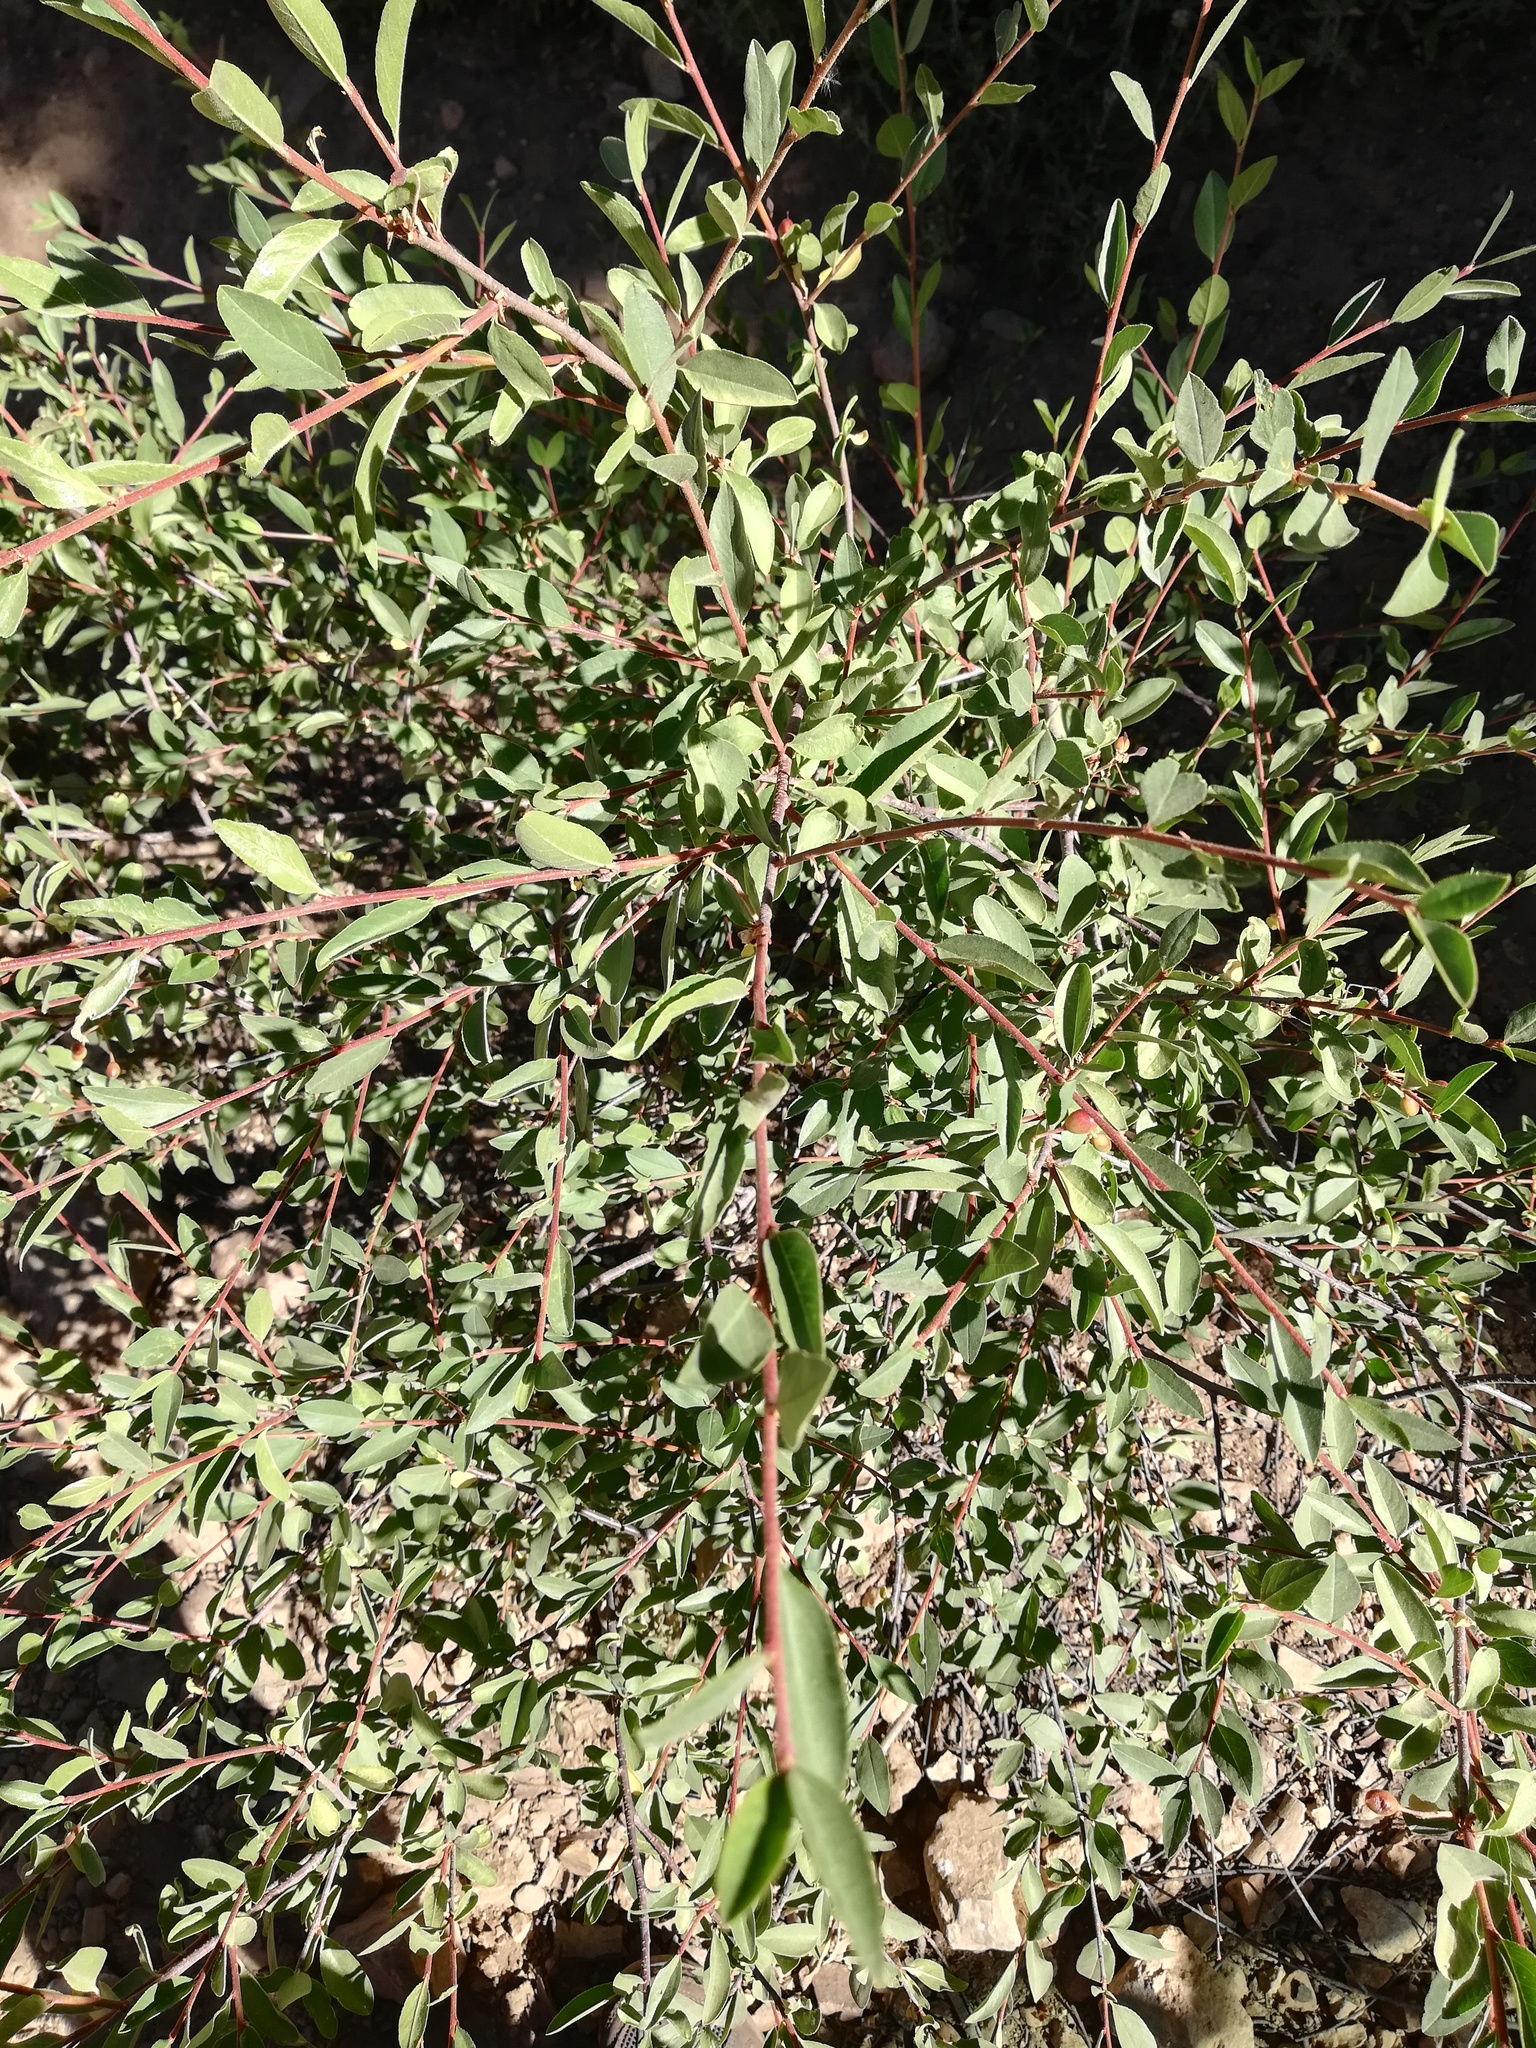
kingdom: Plantae
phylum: Tracheophyta
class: Magnoliopsida
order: Rosales
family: Rosaceae
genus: Prunus
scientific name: Prunus emarginata
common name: Bitter cherry
